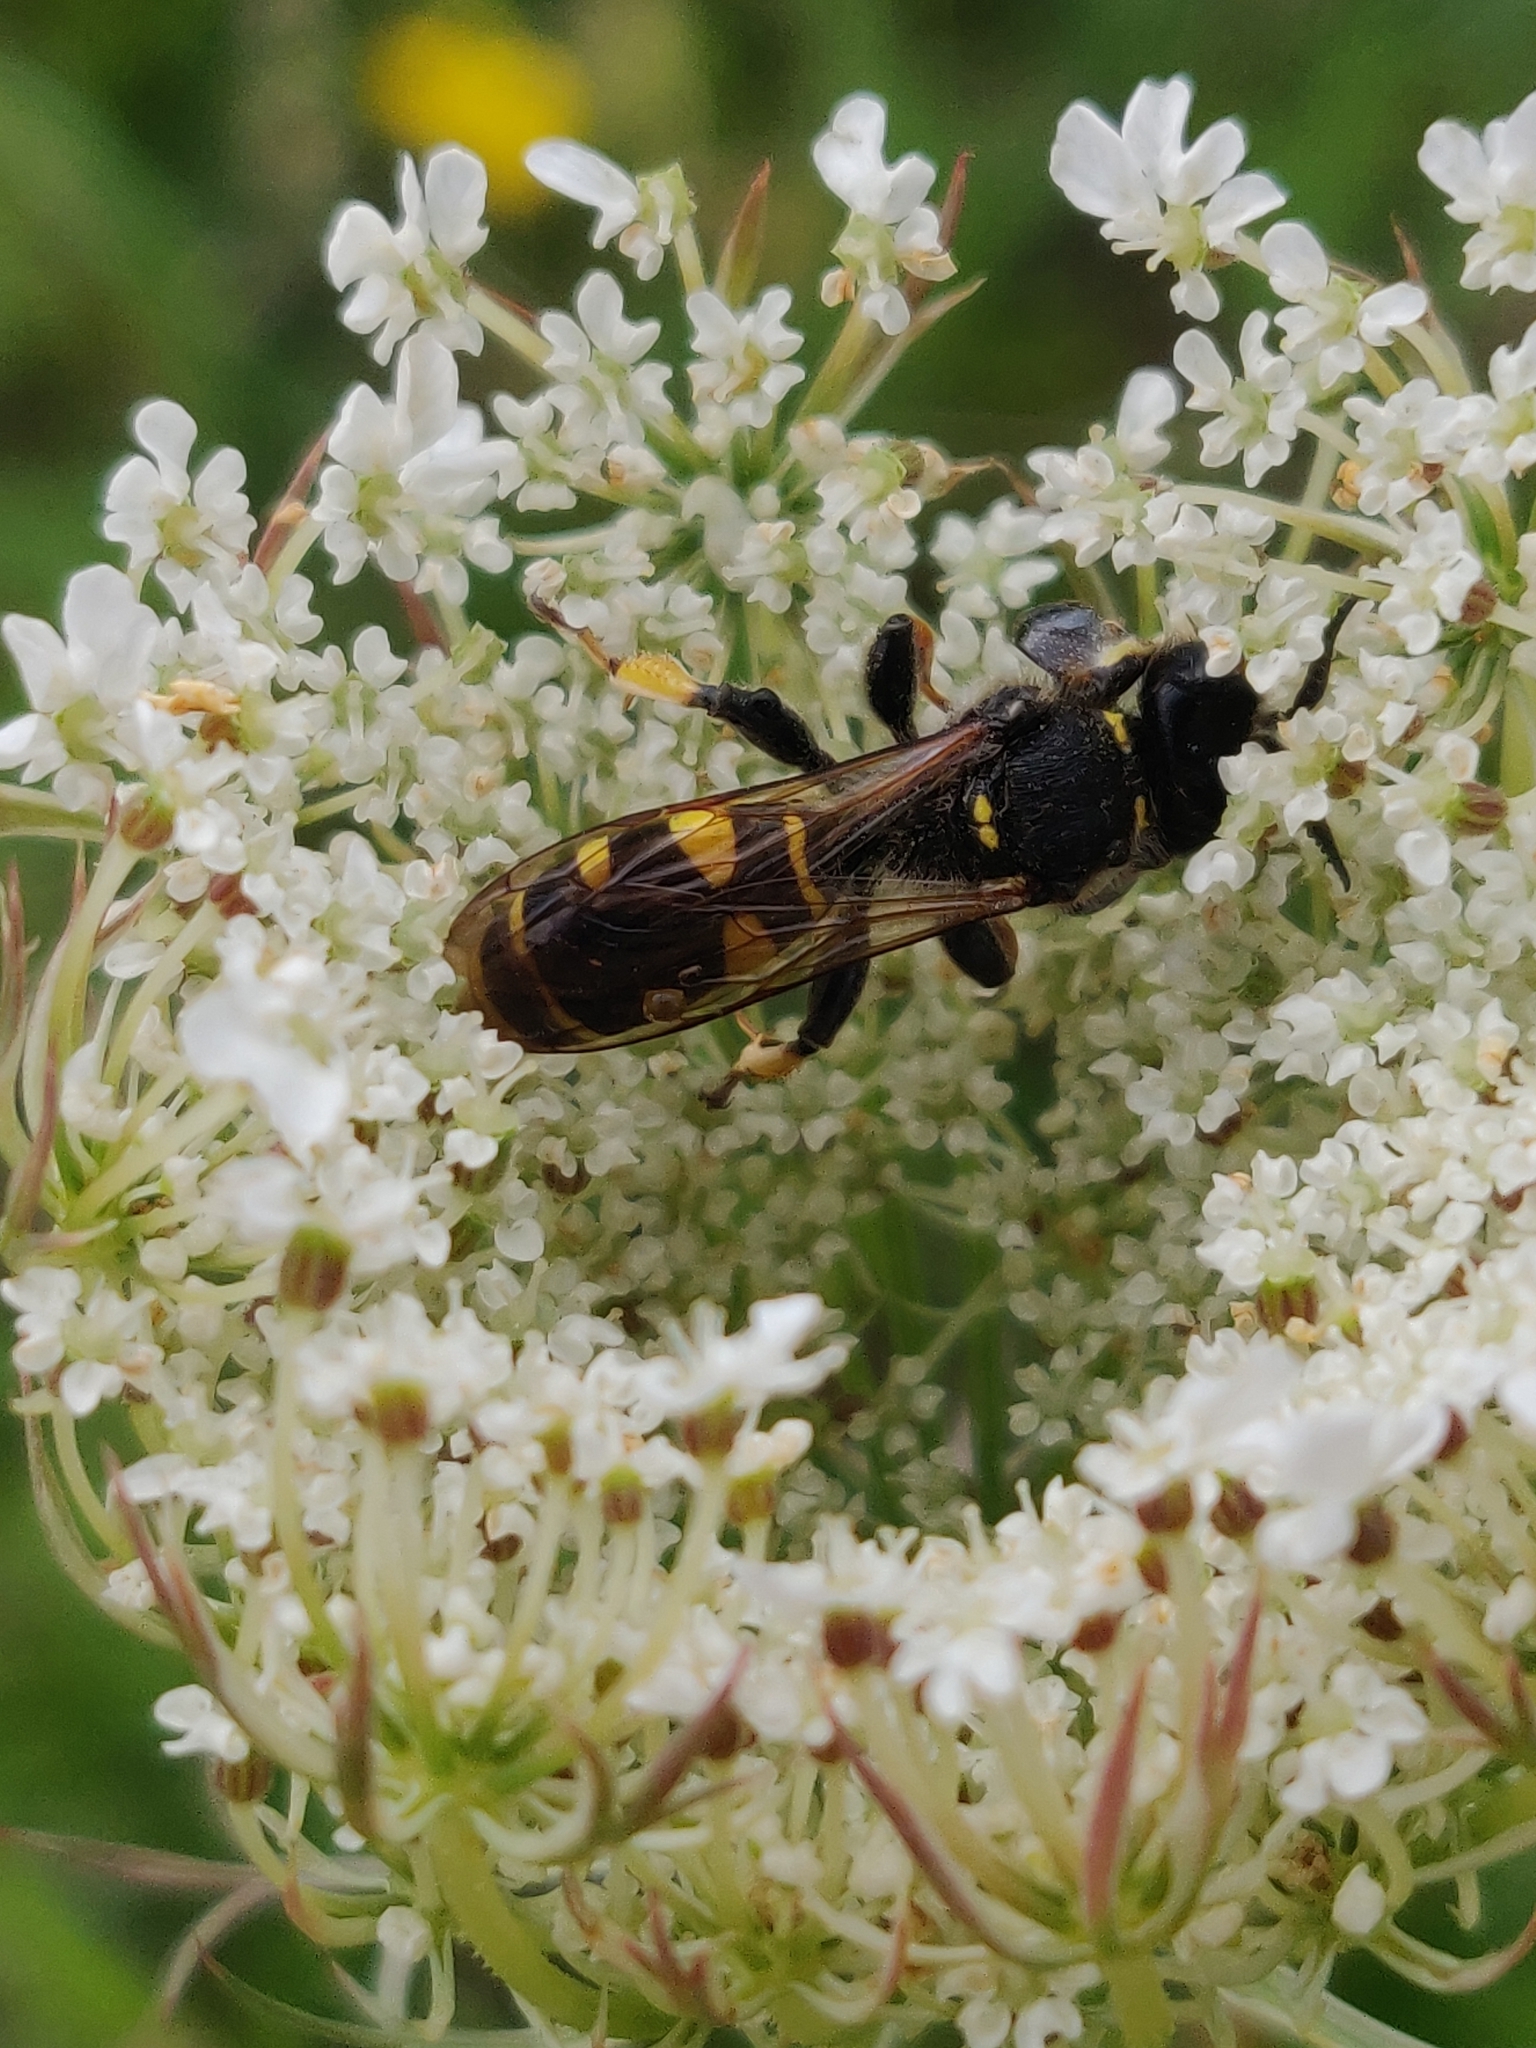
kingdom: Animalia
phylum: Arthropoda
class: Insecta
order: Hymenoptera
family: Crabronidae
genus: Crabro
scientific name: Crabro cribrarius
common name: Slender bodied digger wasp
